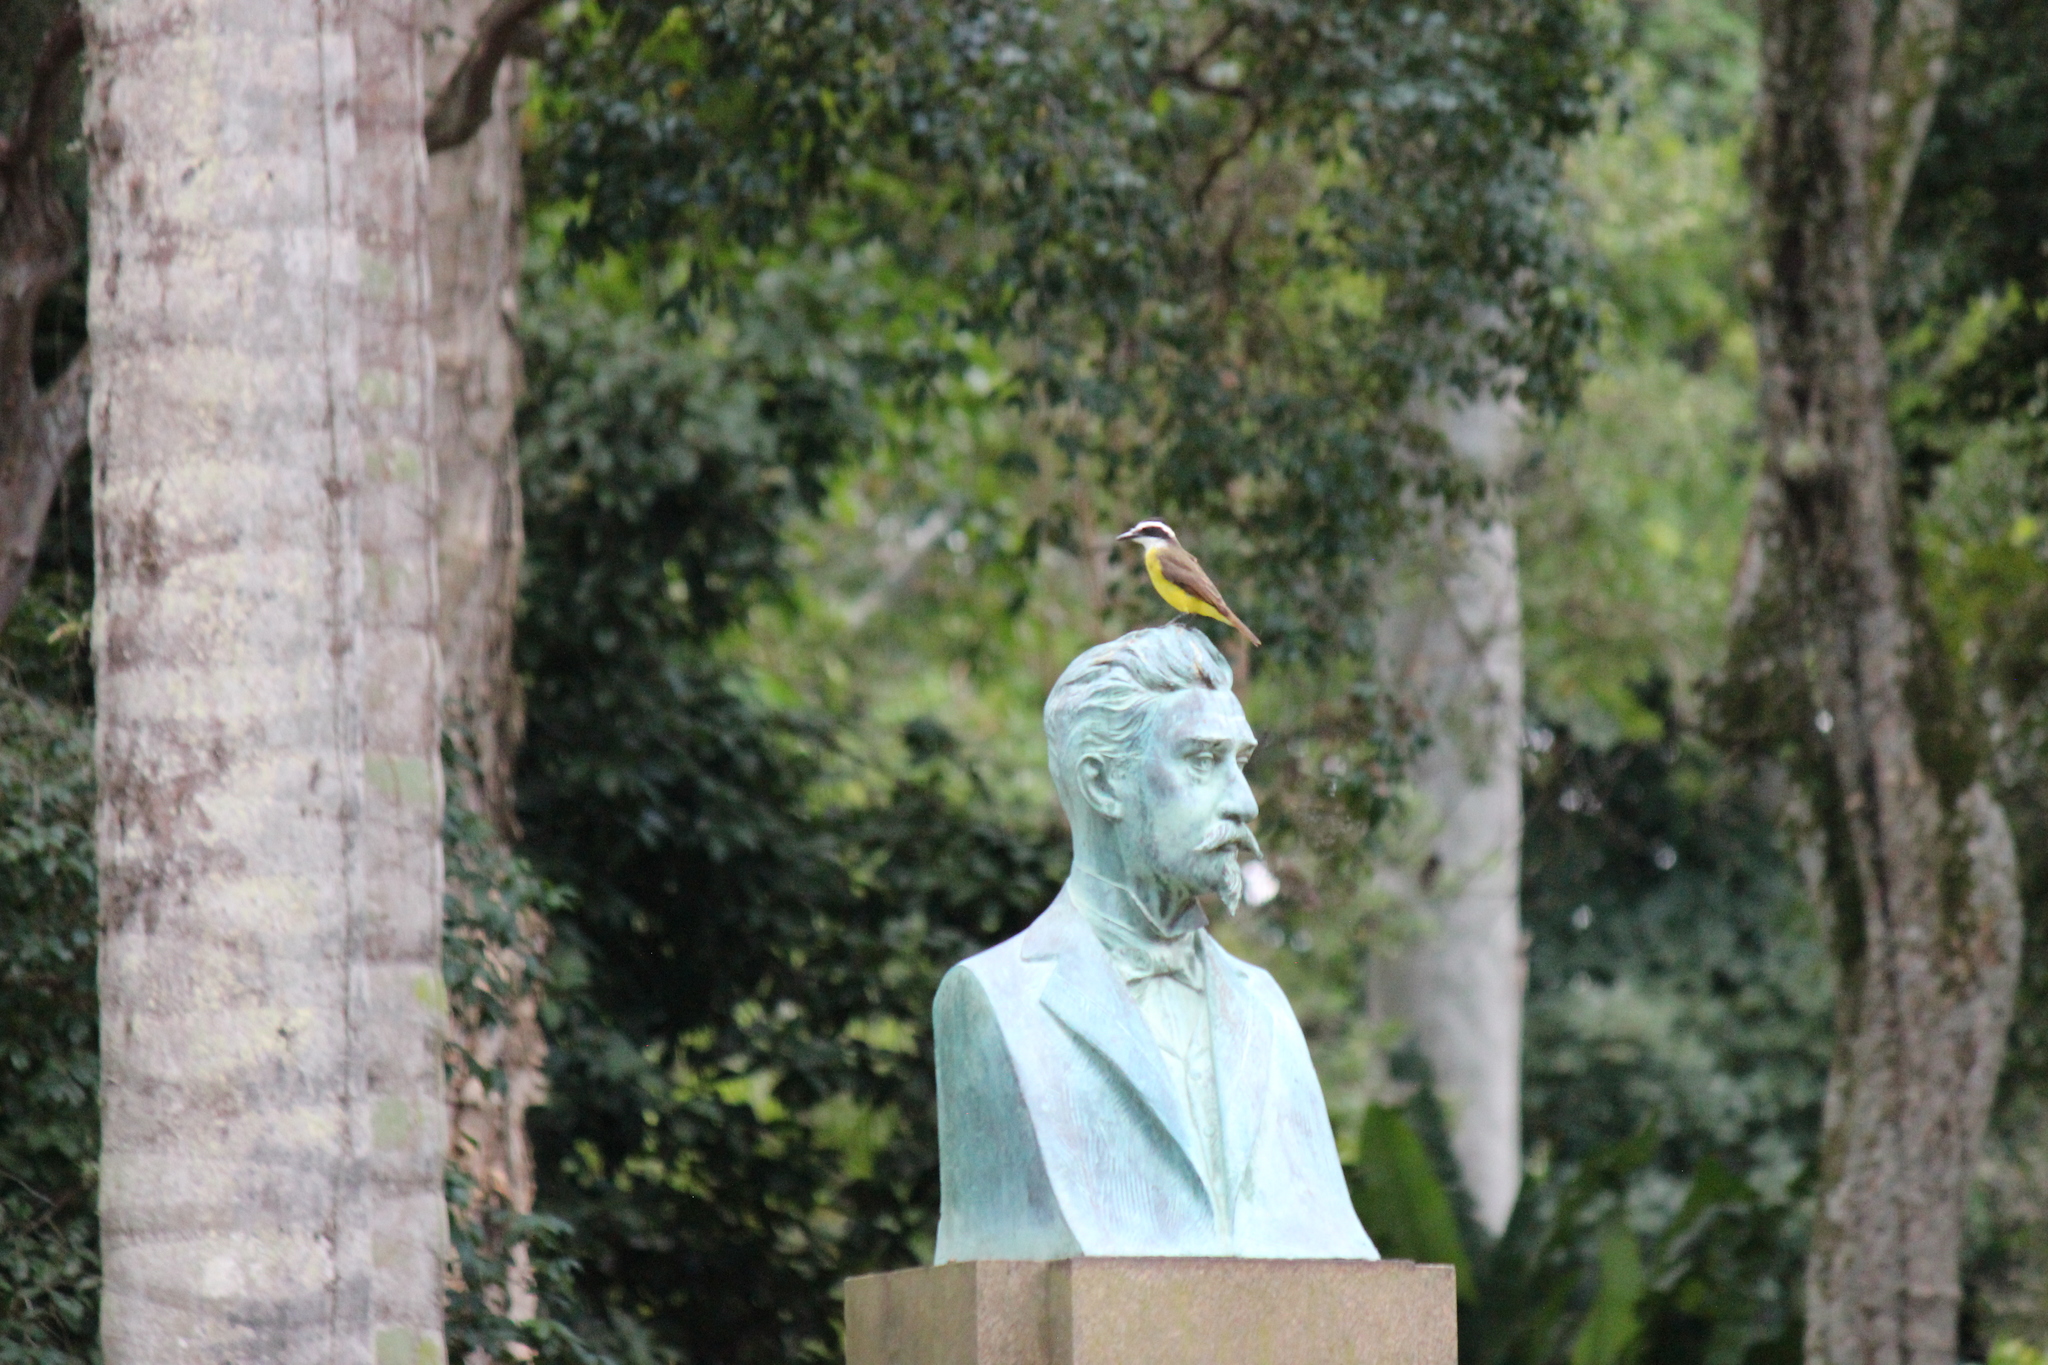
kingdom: Animalia
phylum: Chordata
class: Aves
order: Passeriformes
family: Tyrannidae
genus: Pitangus
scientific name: Pitangus sulphuratus
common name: Great kiskadee
